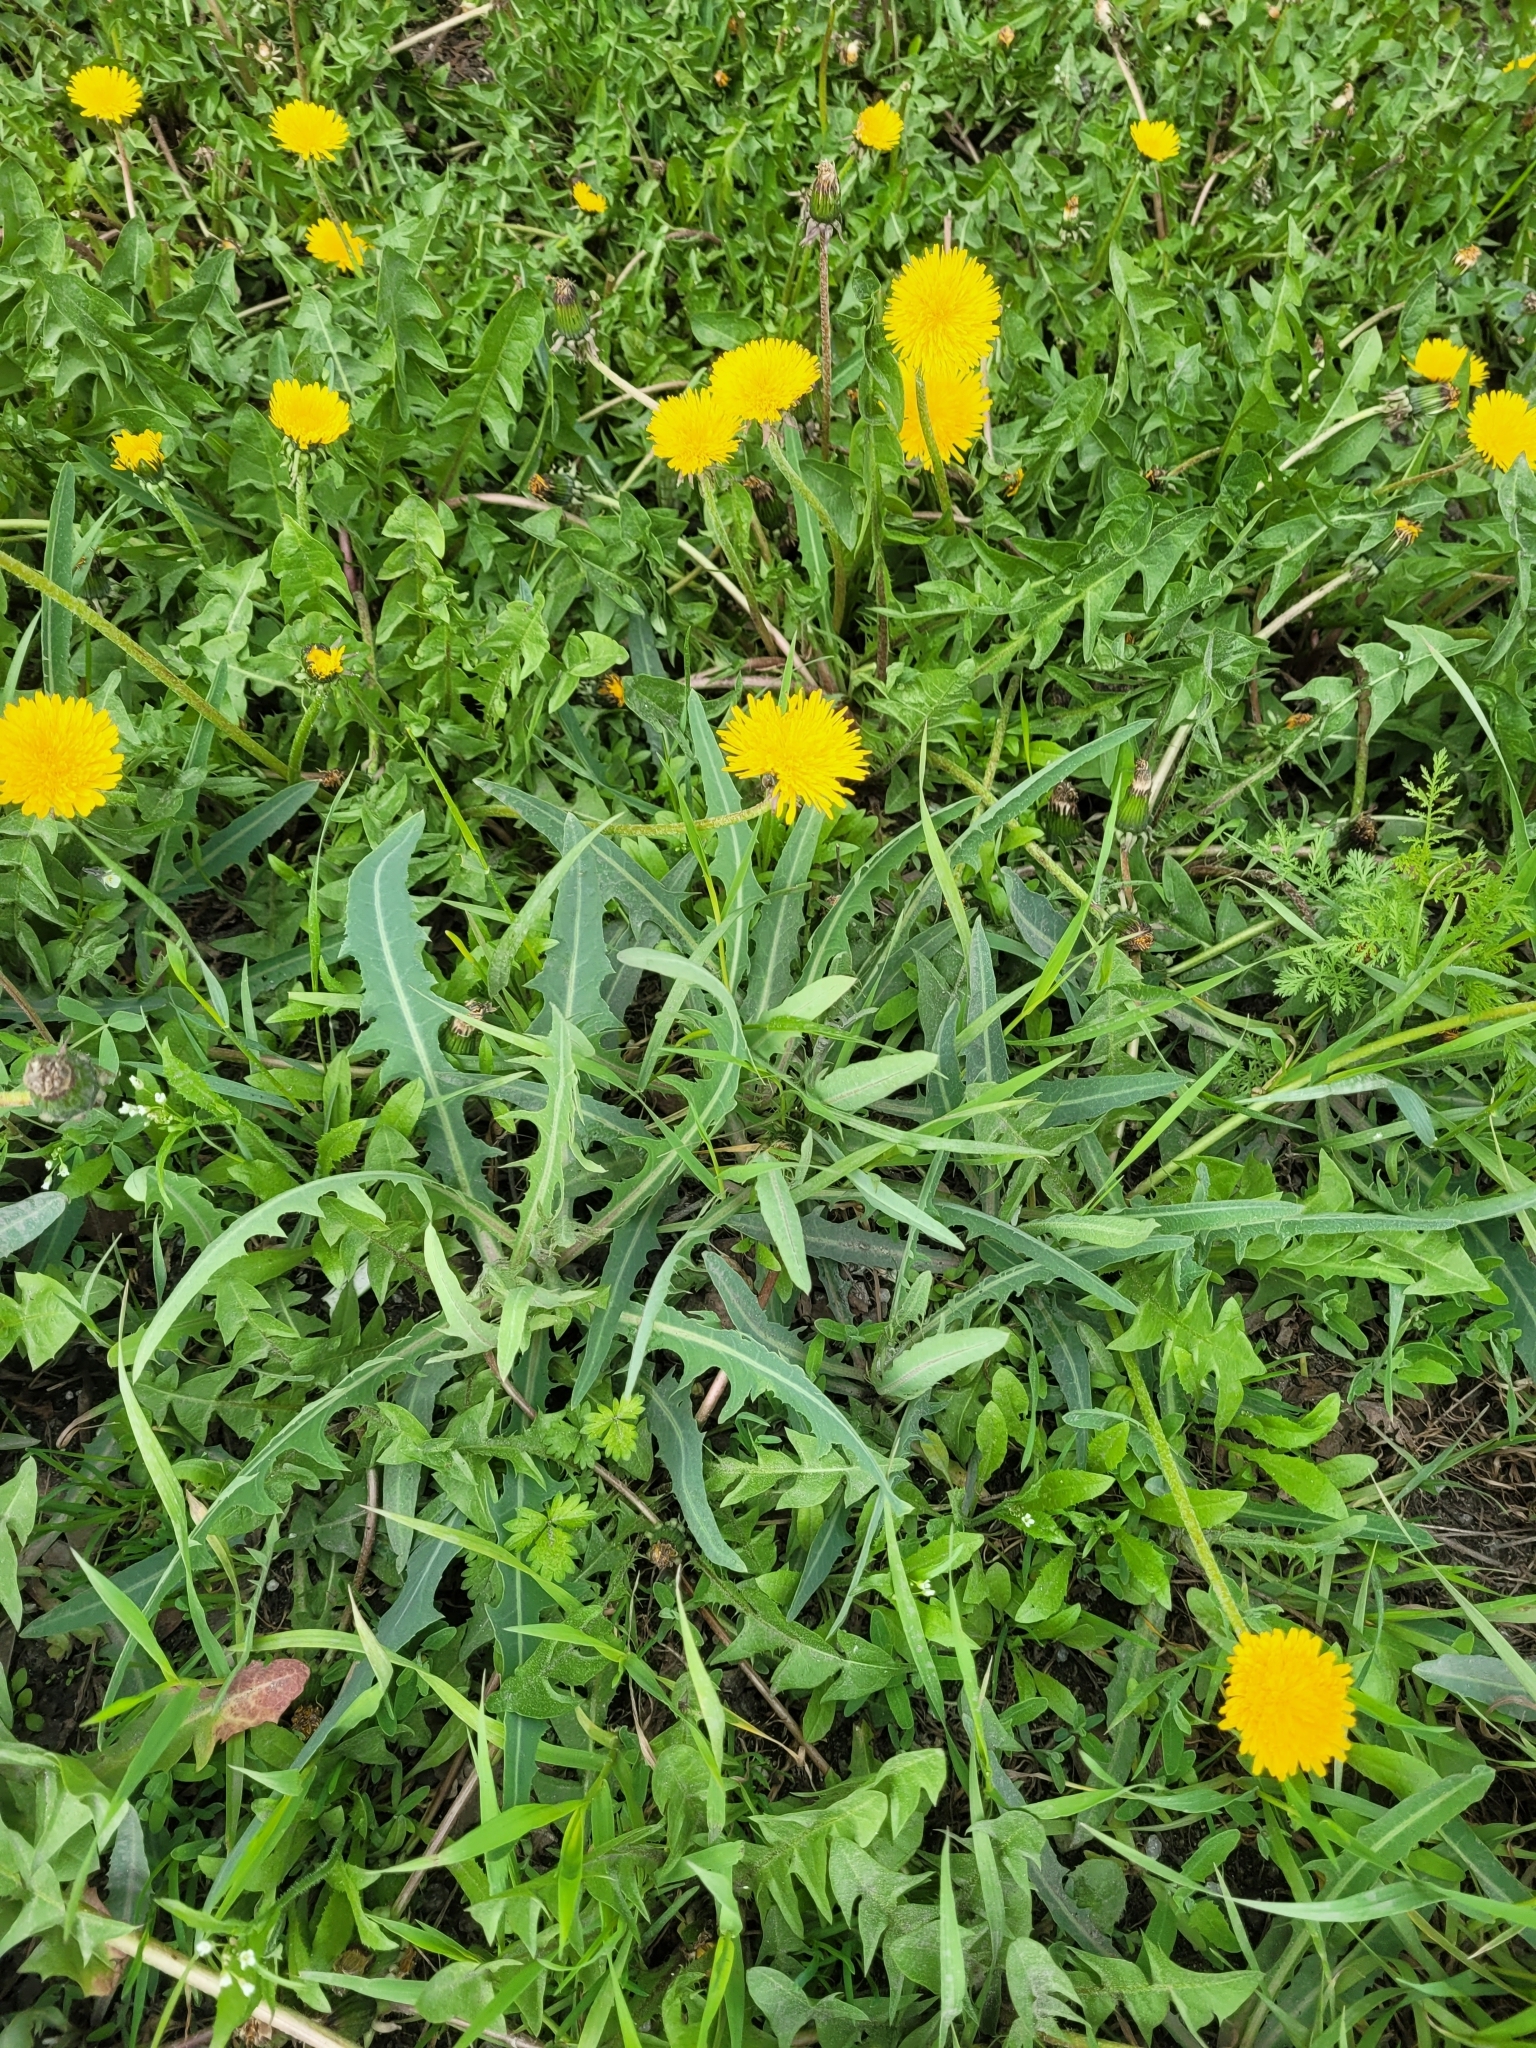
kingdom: Plantae
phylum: Tracheophyta
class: Magnoliopsida
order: Asterales
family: Asteraceae
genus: Lactuca
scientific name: Lactuca tatarica
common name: Blue lettuce
